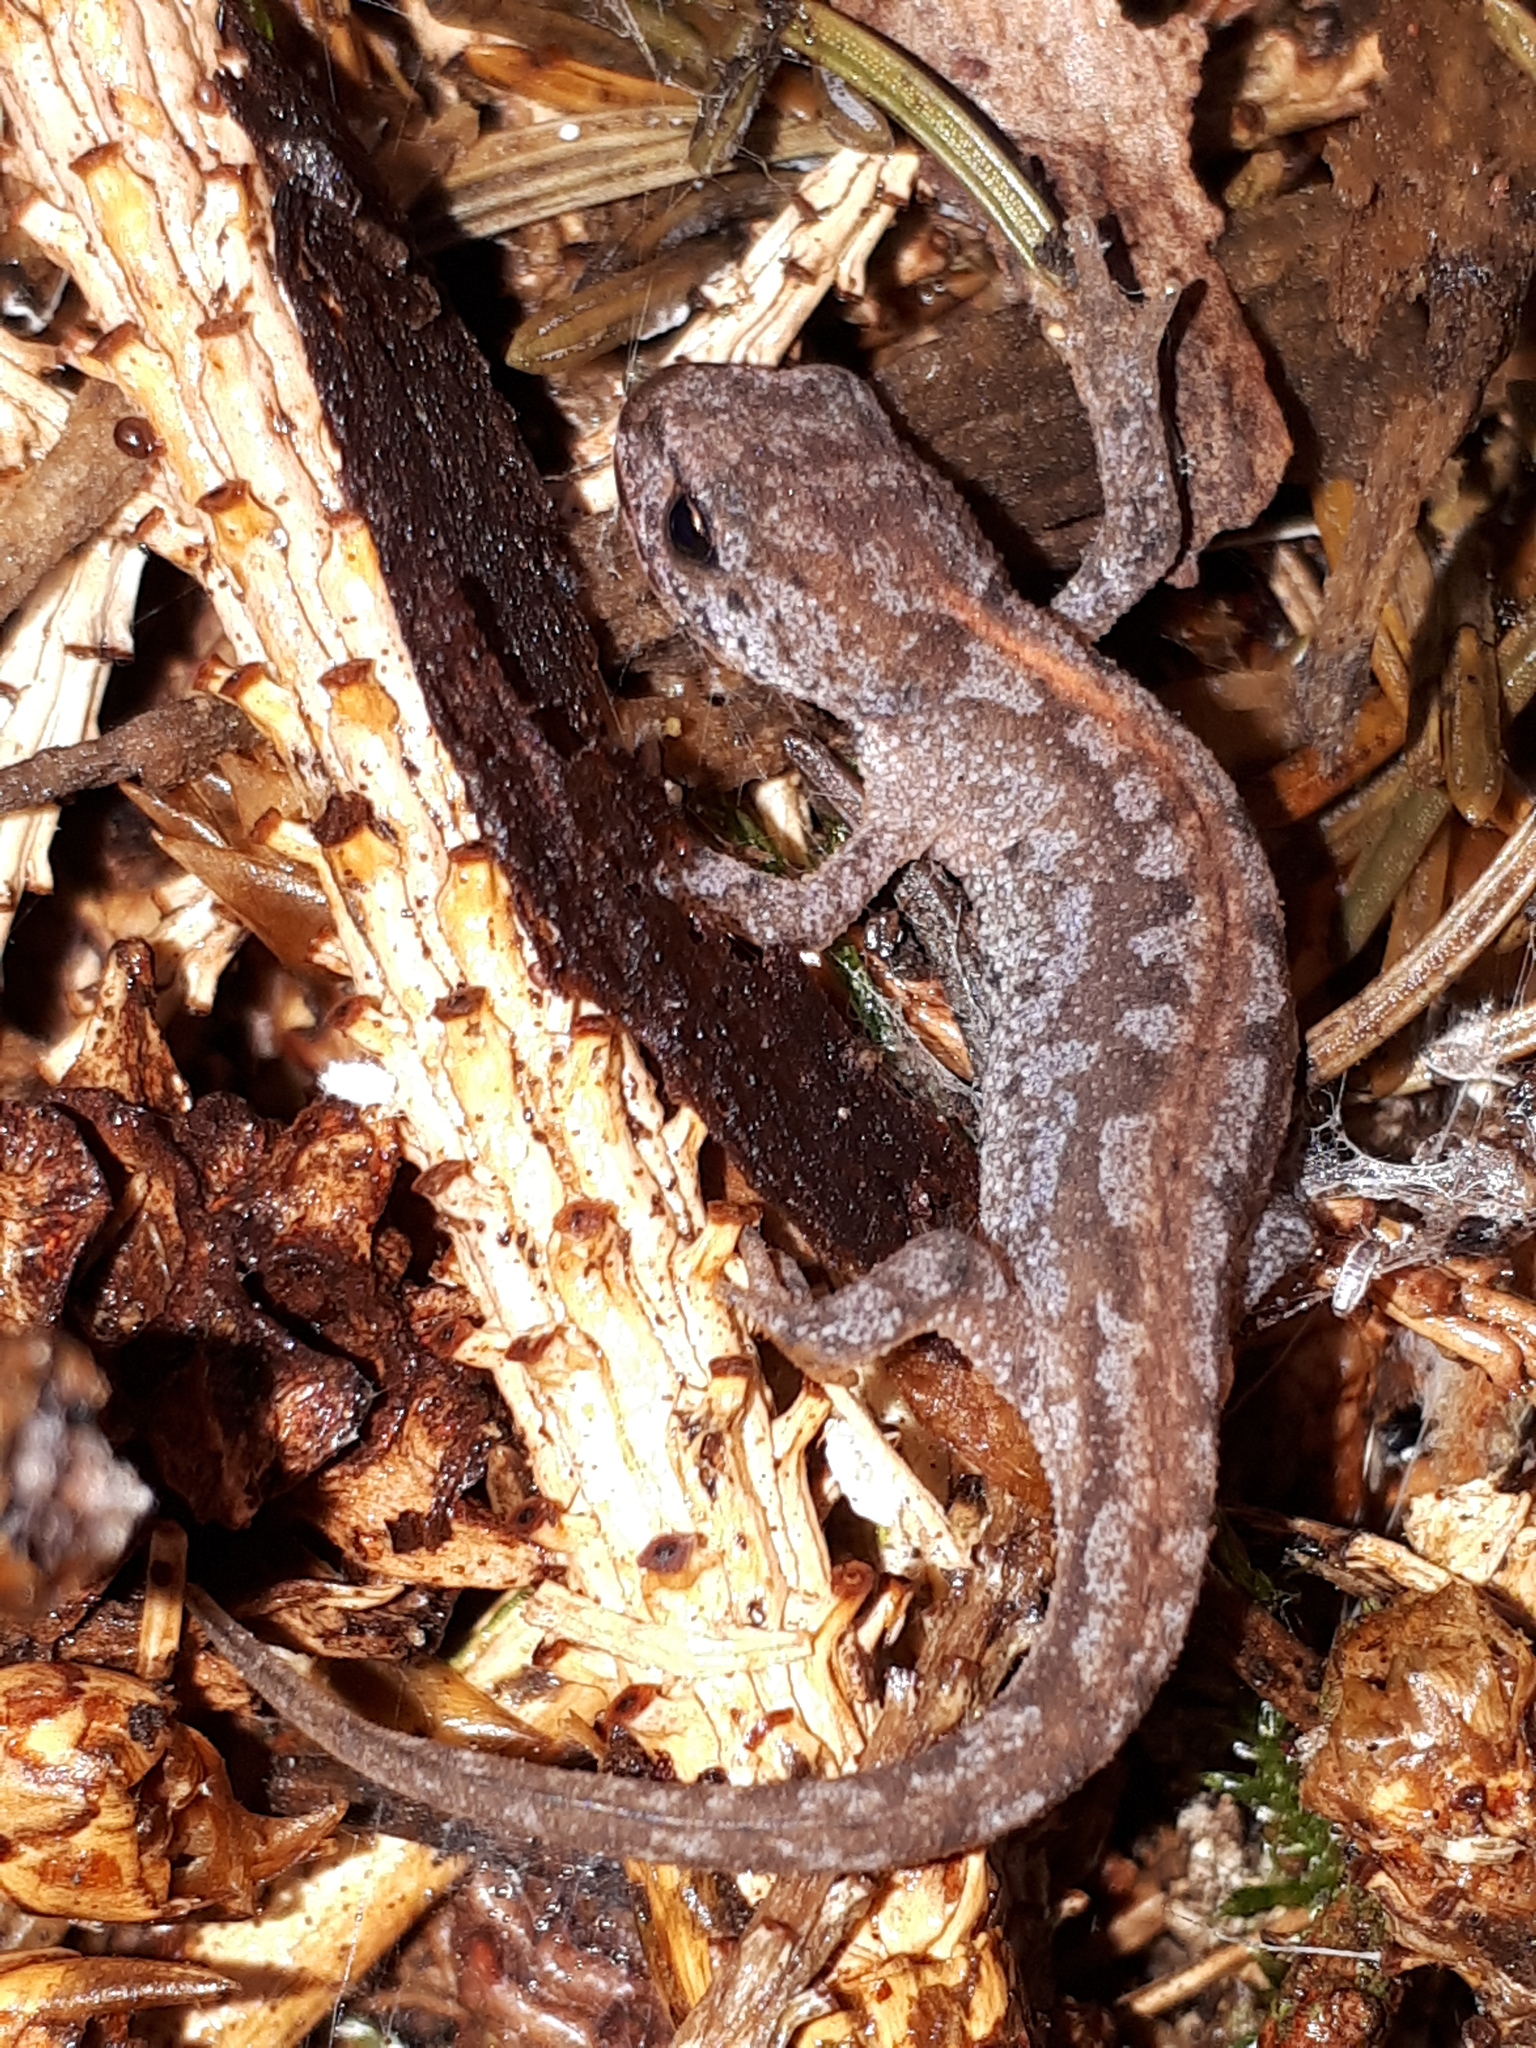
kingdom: Animalia
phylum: Chordata
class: Amphibia
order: Caudata
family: Salamandridae
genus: Ichthyosaura
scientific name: Ichthyosaura alpestris
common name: Alpine newt
